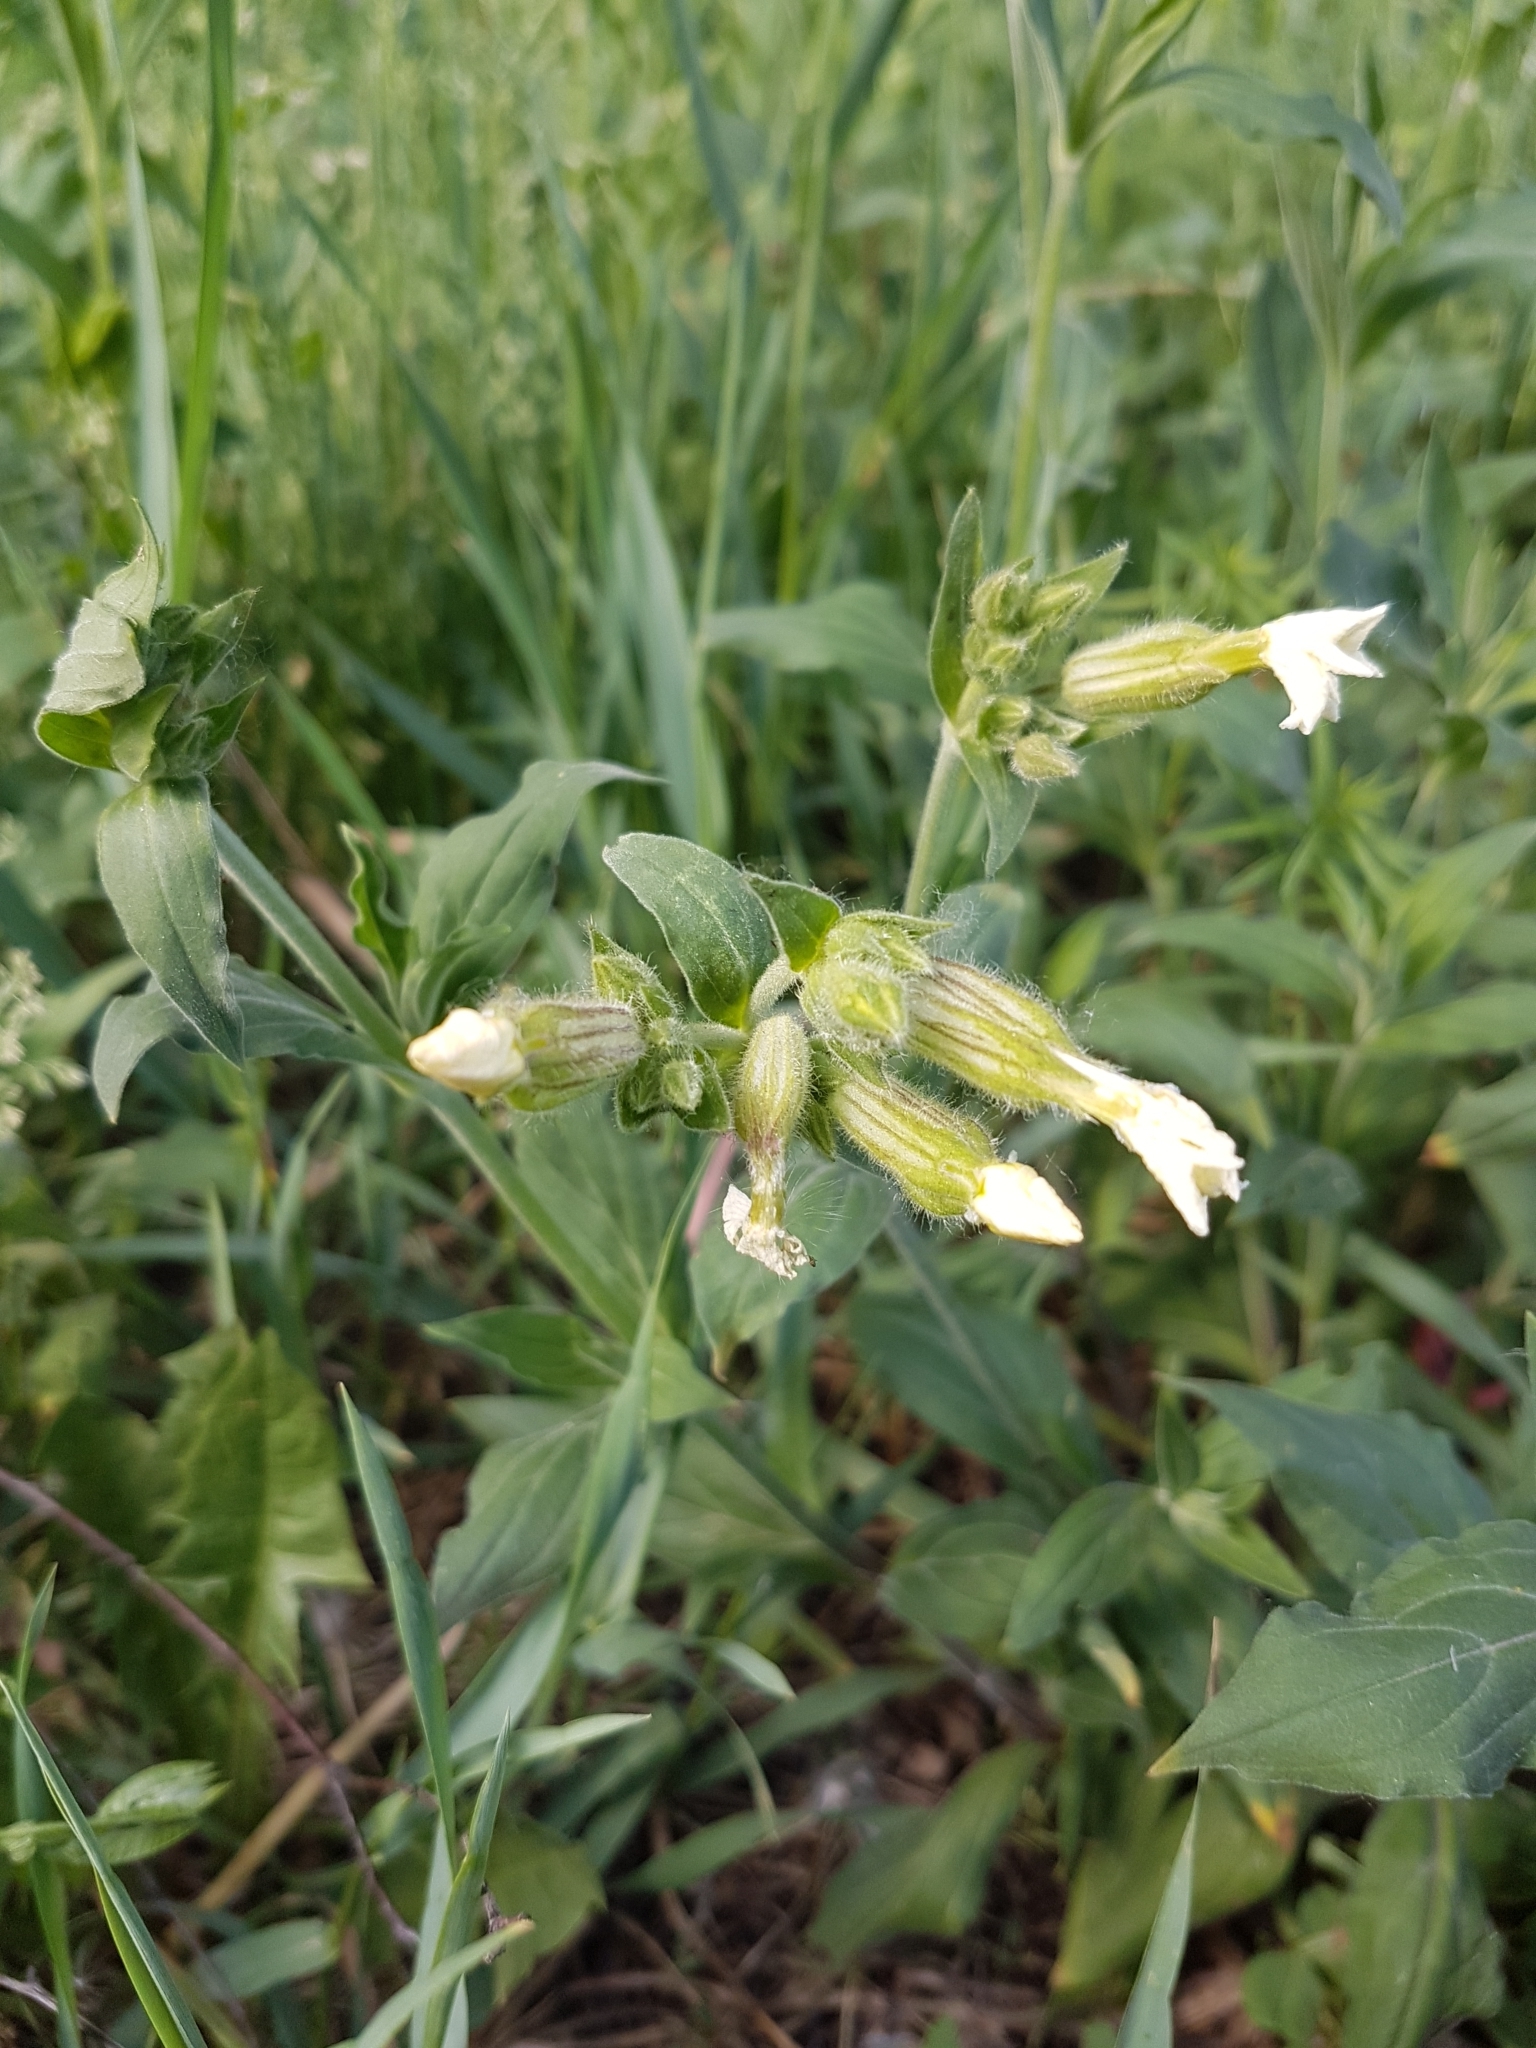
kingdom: Plantae
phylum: Tracheophyta
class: Magnoliopsida
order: Caryophyllales
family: Caryophyllaceae
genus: Silene
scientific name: Silene latifolia
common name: White campion
